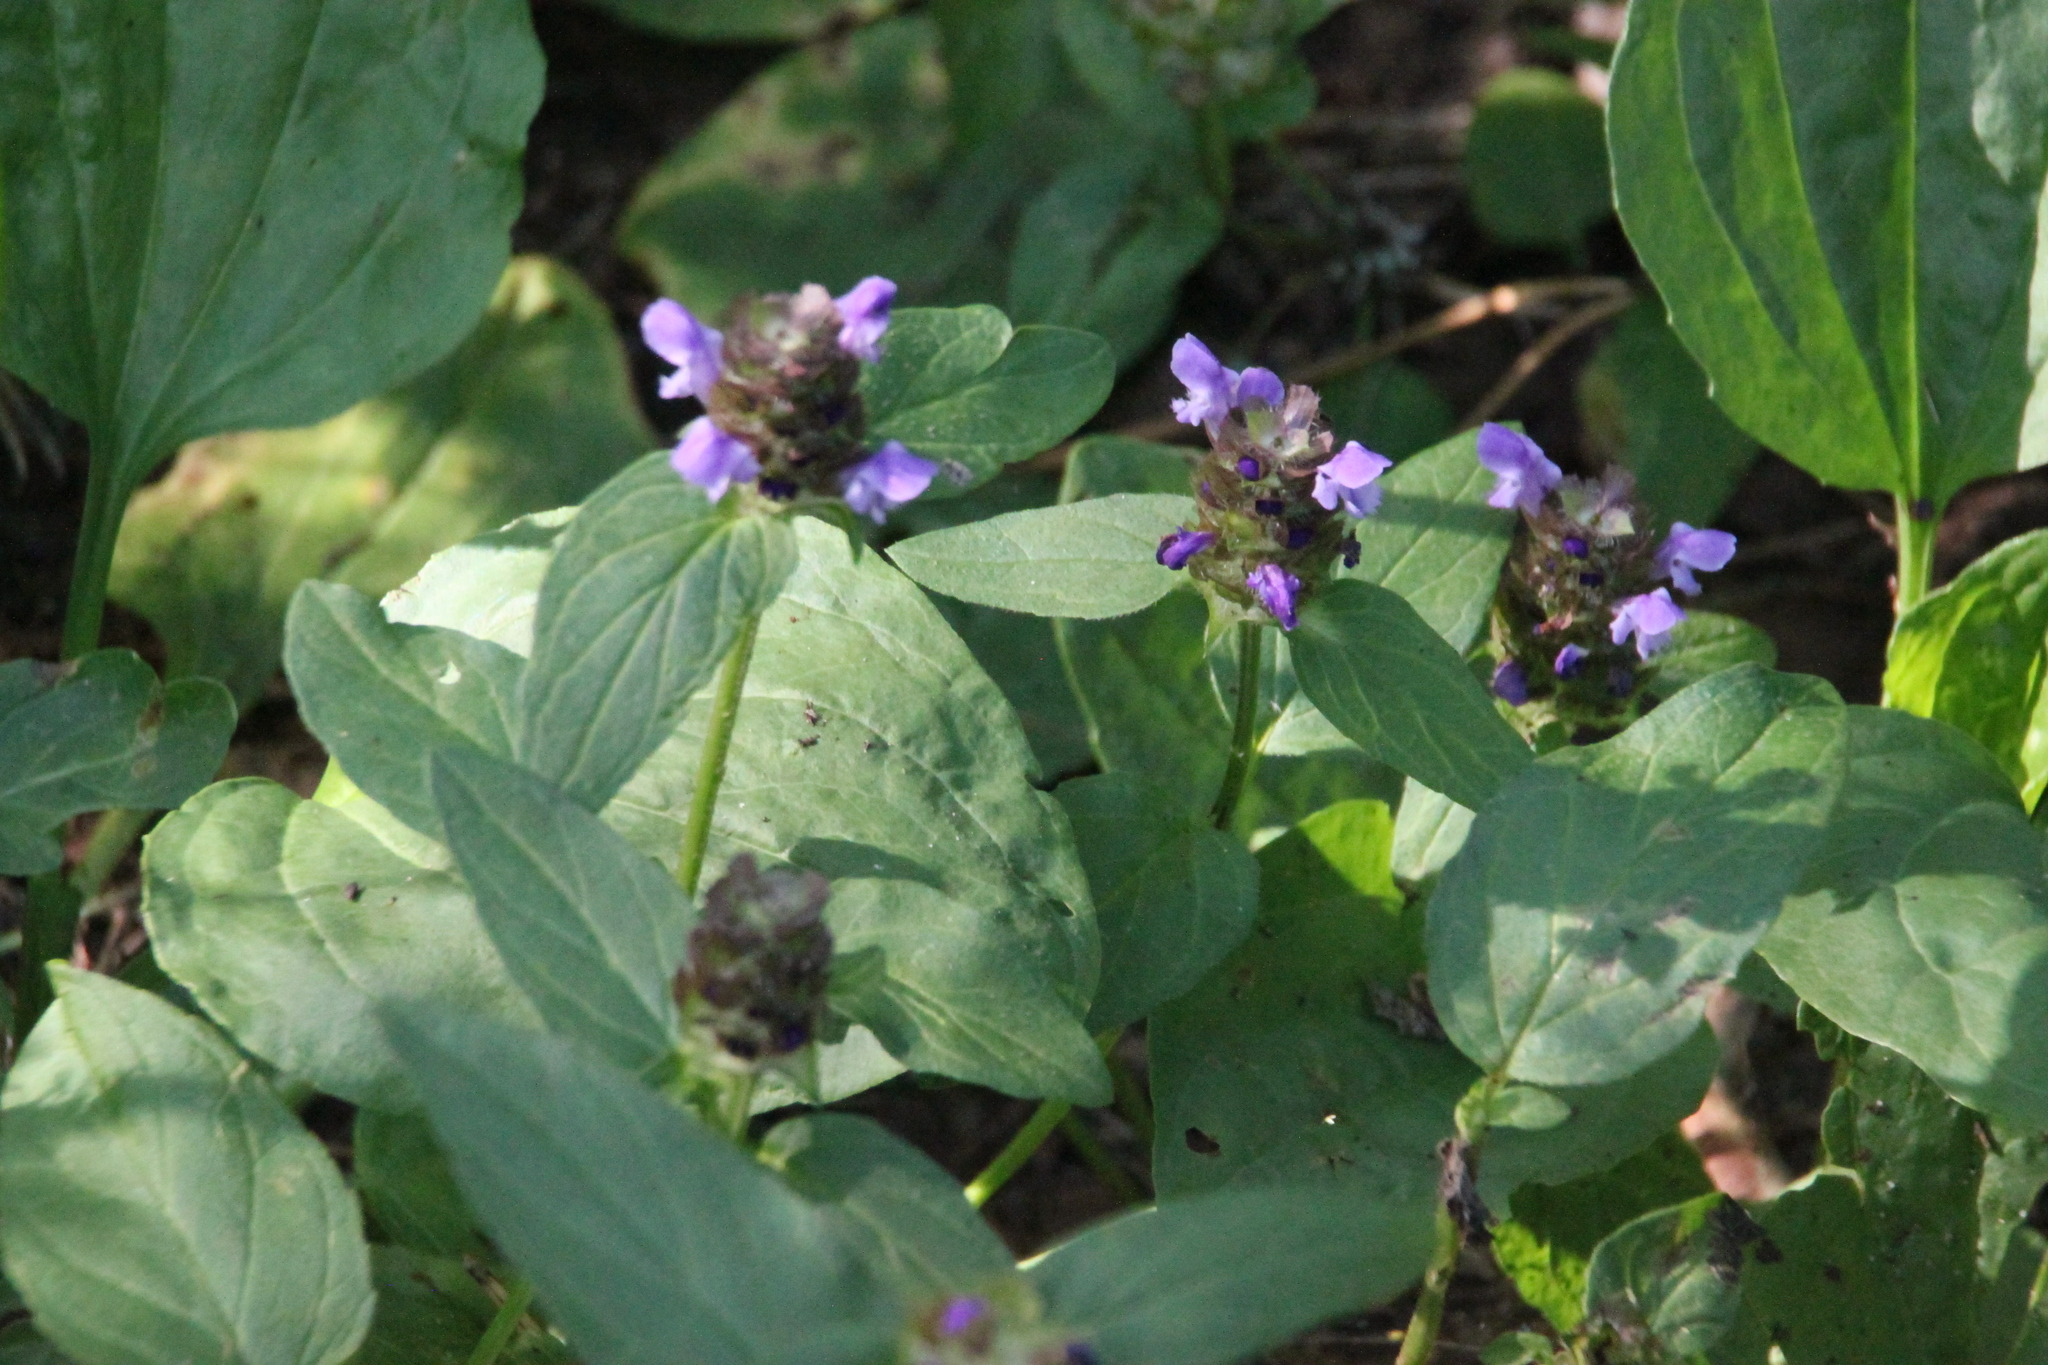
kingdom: Plantae
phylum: Tracheophyta
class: Magnoliopsida
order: Lamiales
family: Lamiaceae
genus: Prunella
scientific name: Prunella vulgaris
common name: Heal-all
